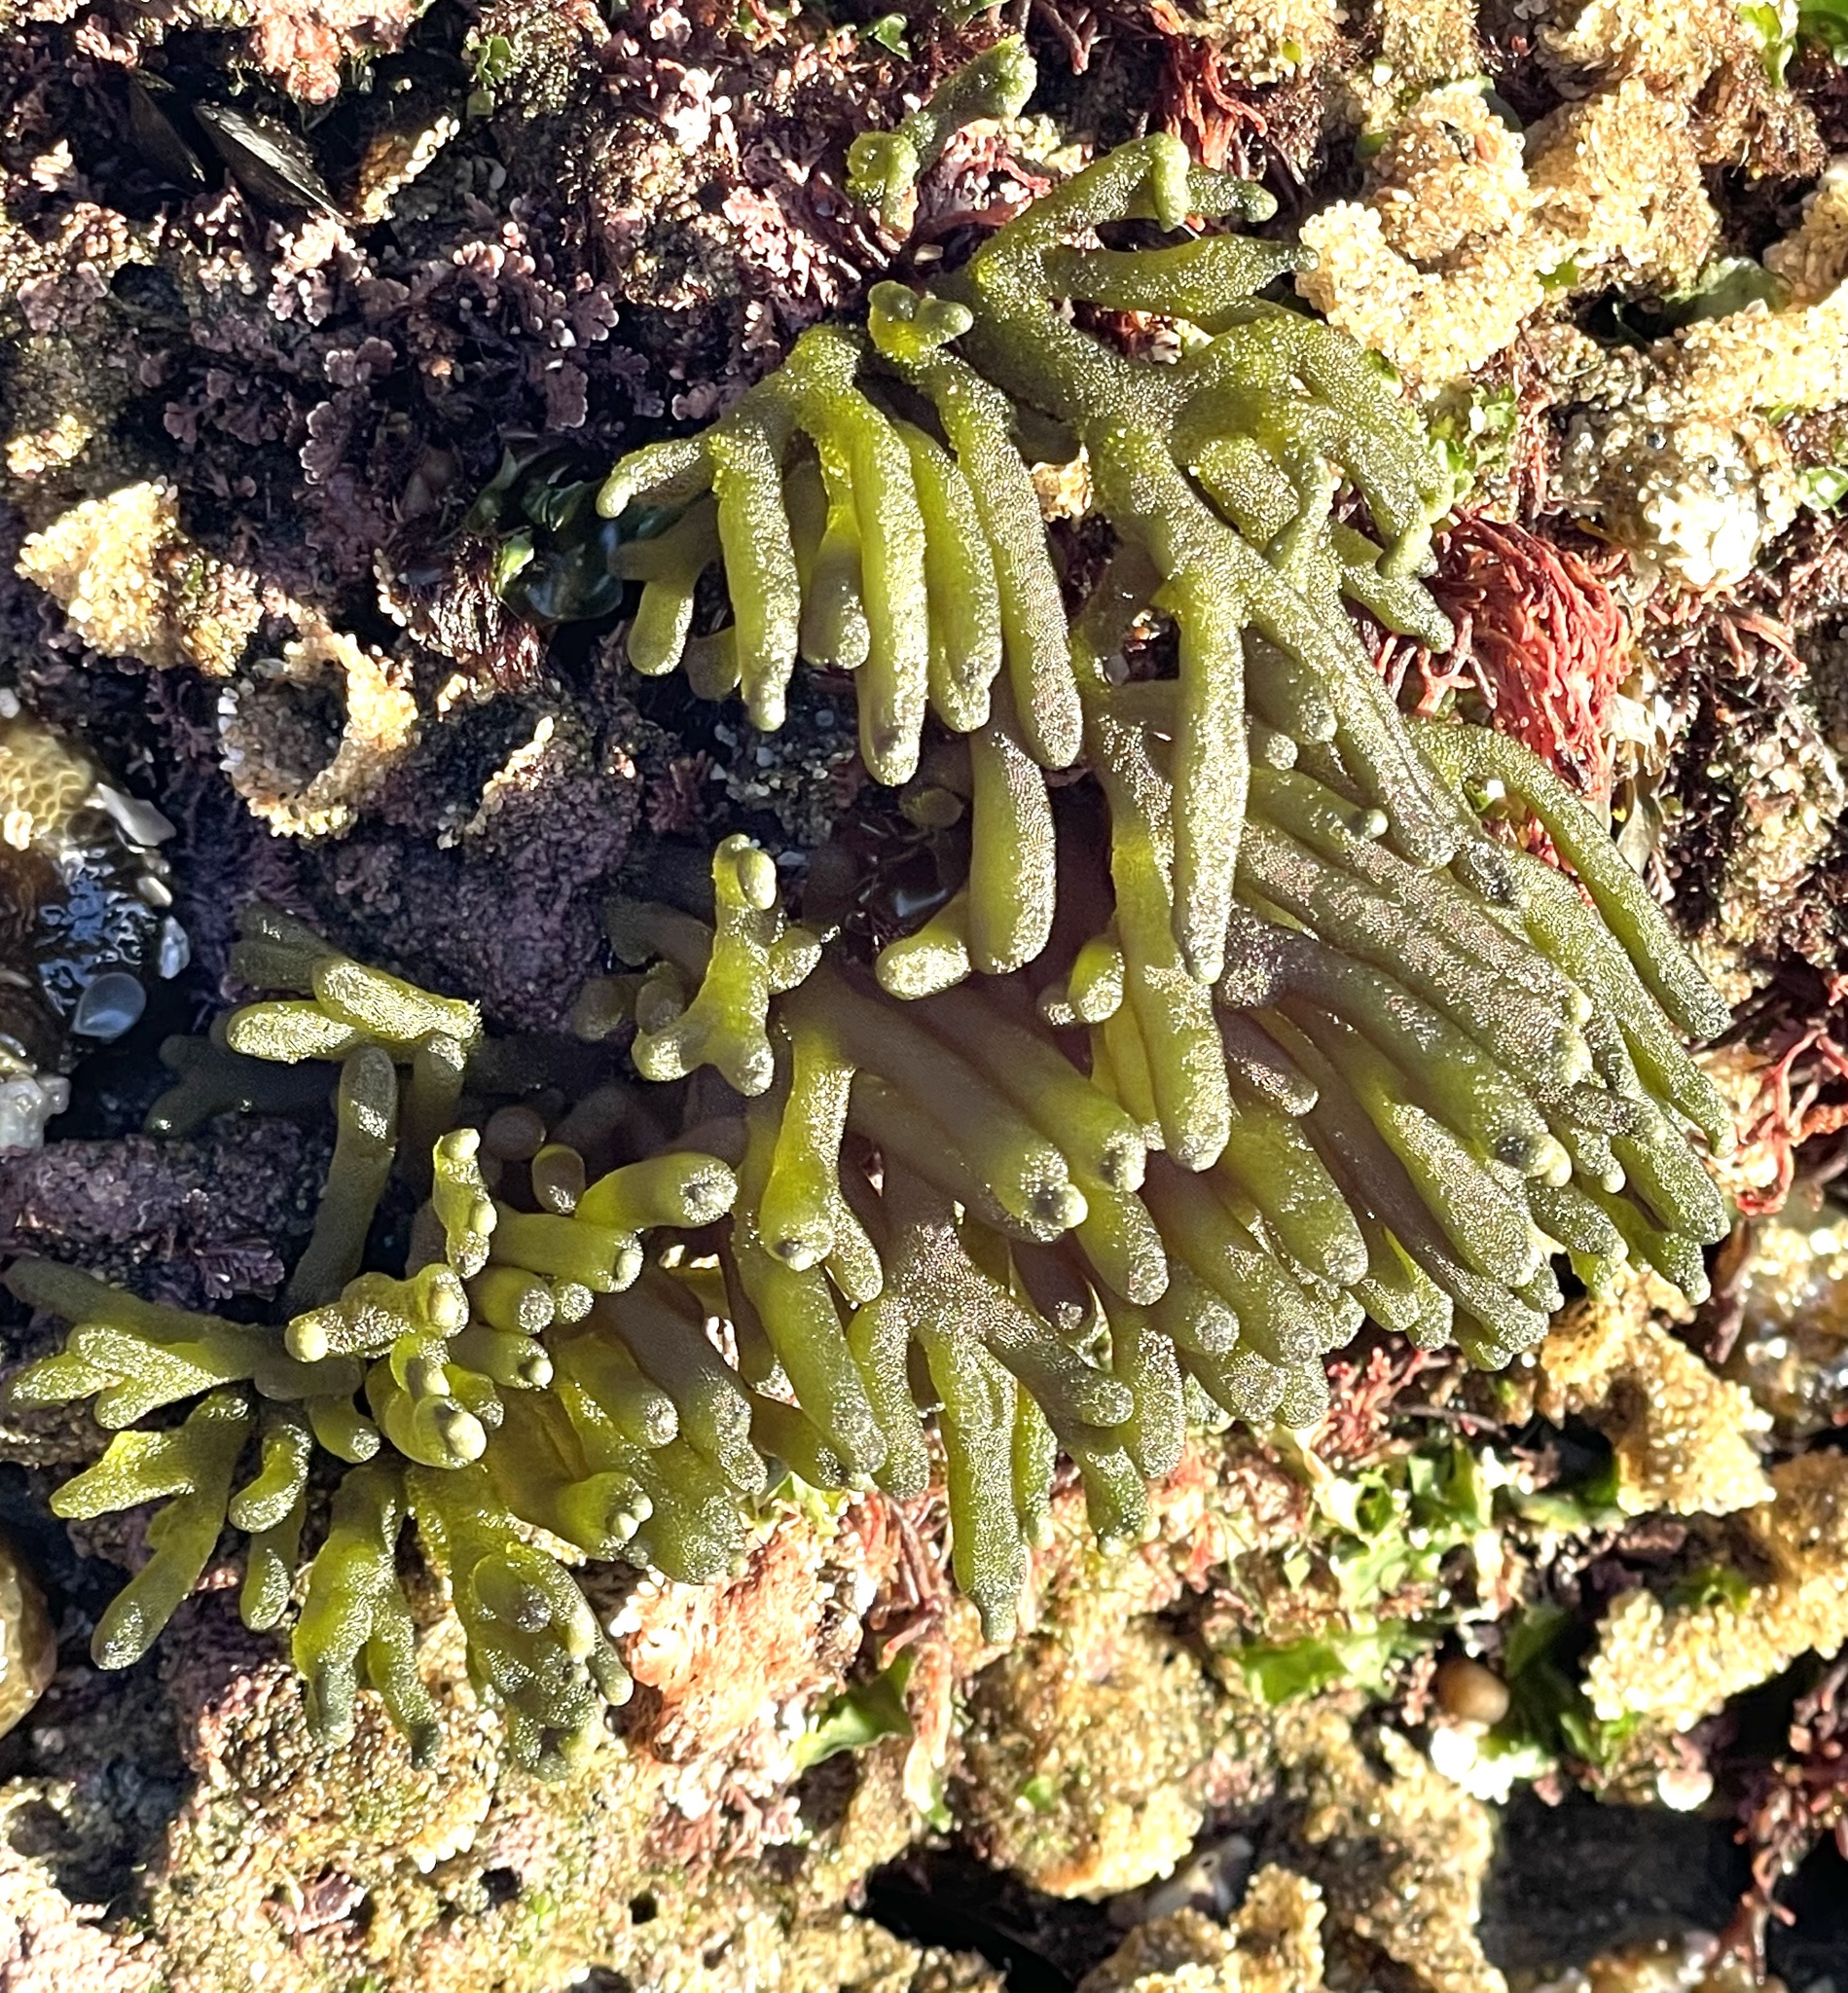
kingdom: Plantae
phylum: Chlorophyta
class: Ulvophyceae
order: Bryopsidales
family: Codiaceae
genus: Codium
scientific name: Codium fragile
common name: Dead man's fingers
